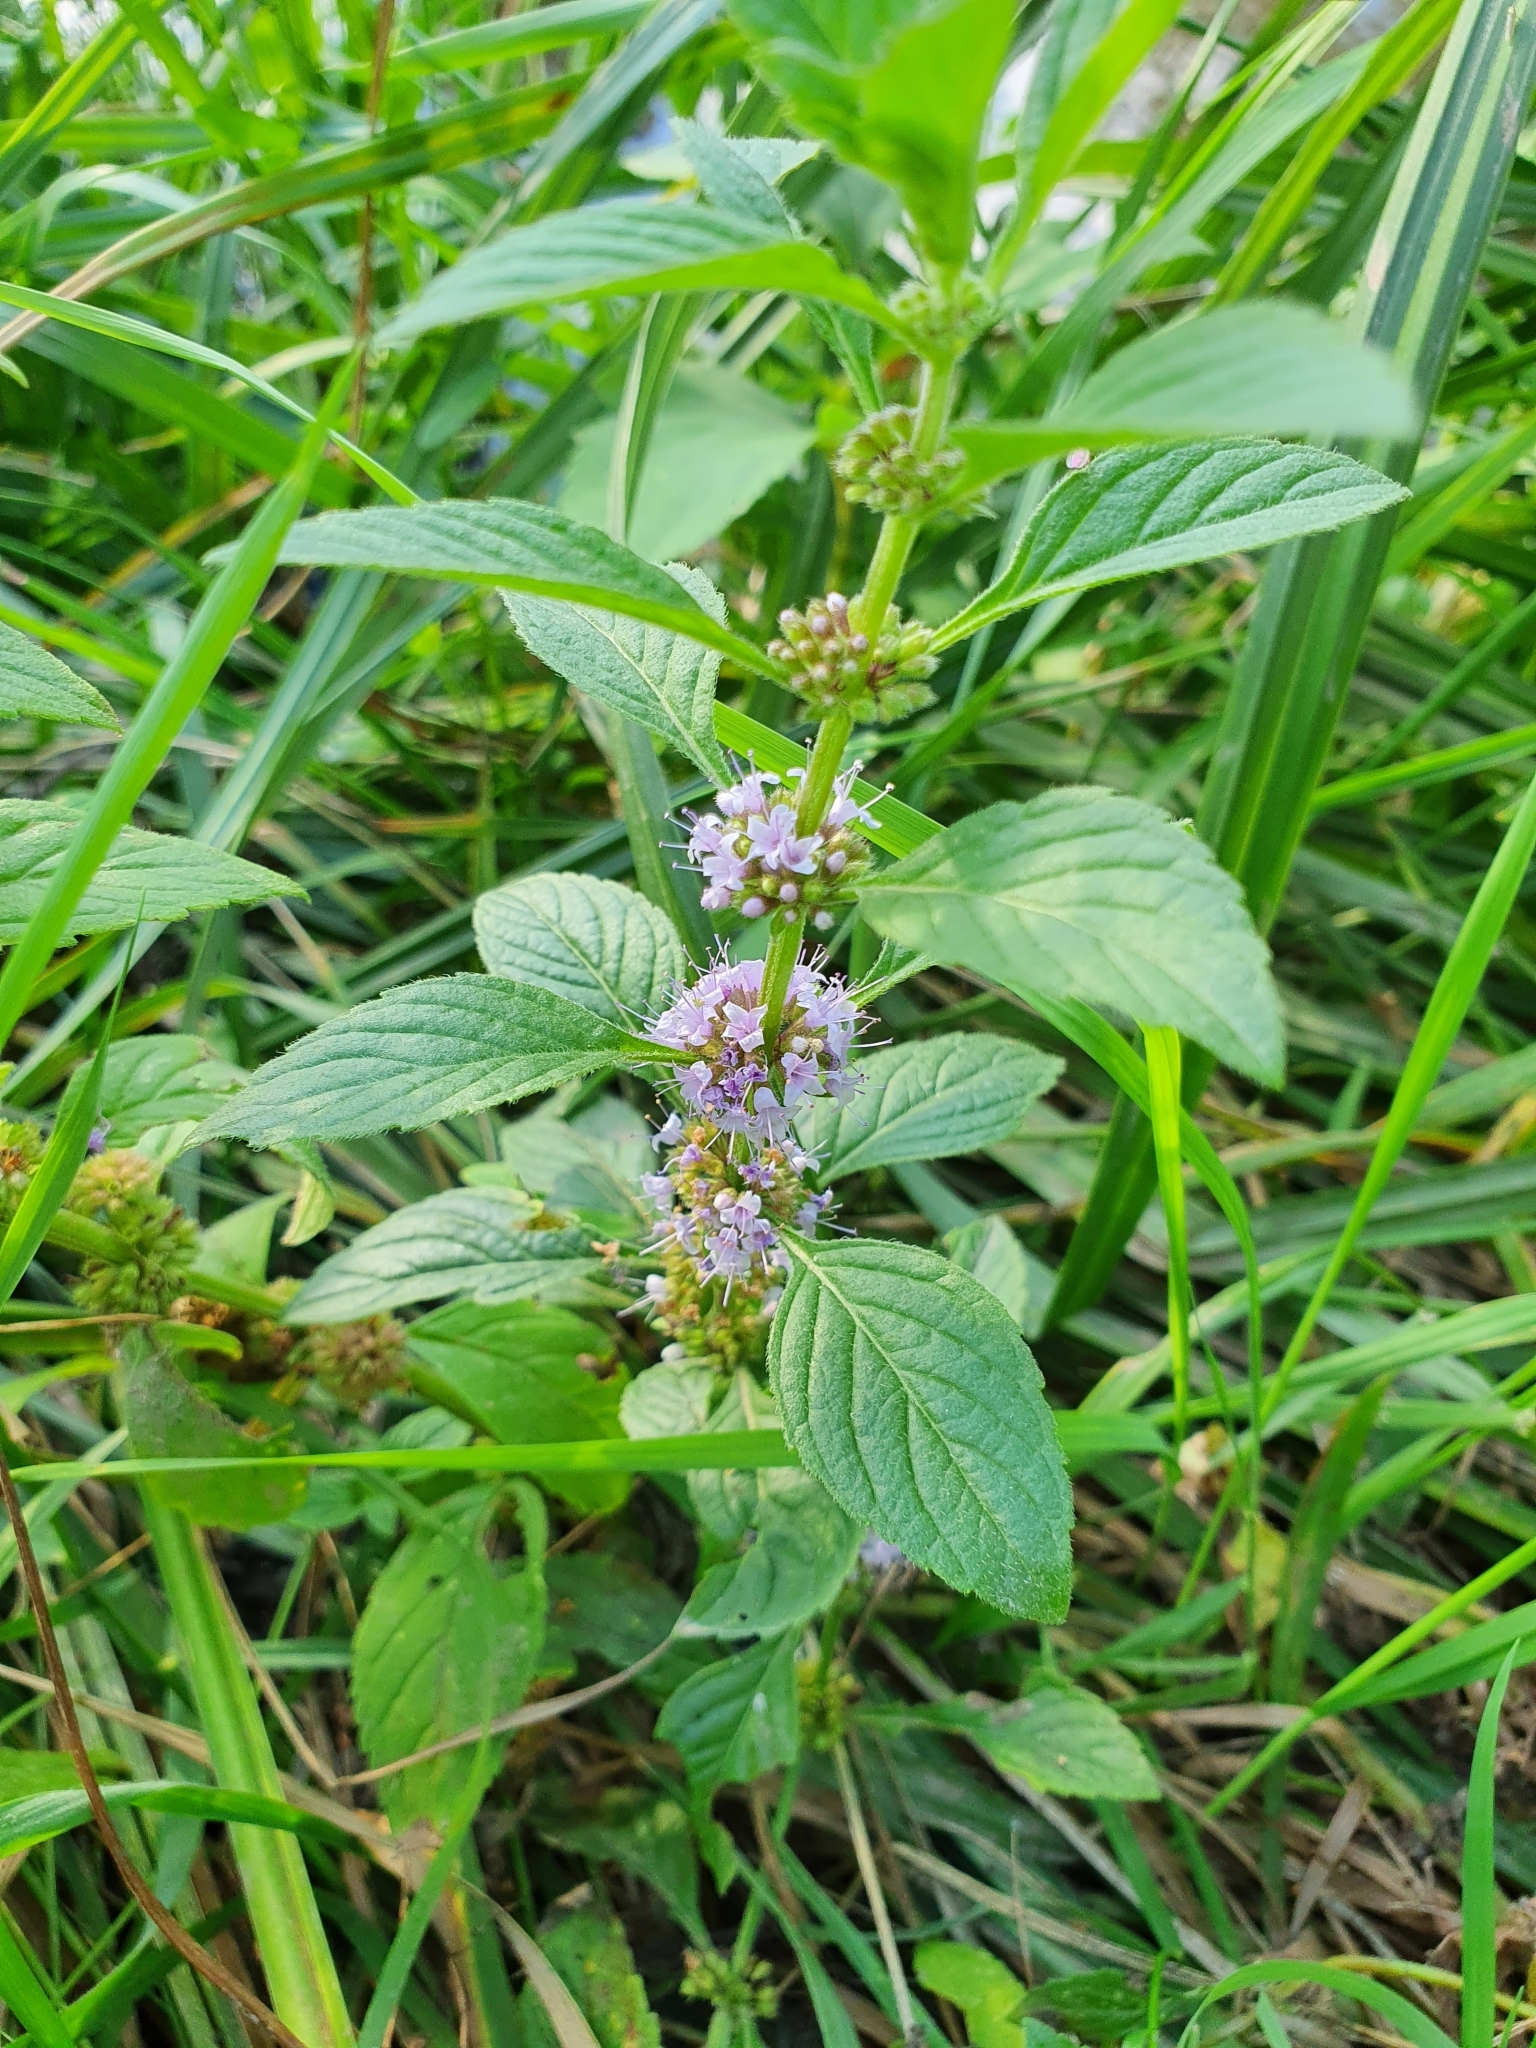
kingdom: Plantae
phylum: Tracheophyta
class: Magnoliopsida
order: Lamiales
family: Lamiaceae
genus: Mentha
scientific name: Mentha arvensis
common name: Corn mint
